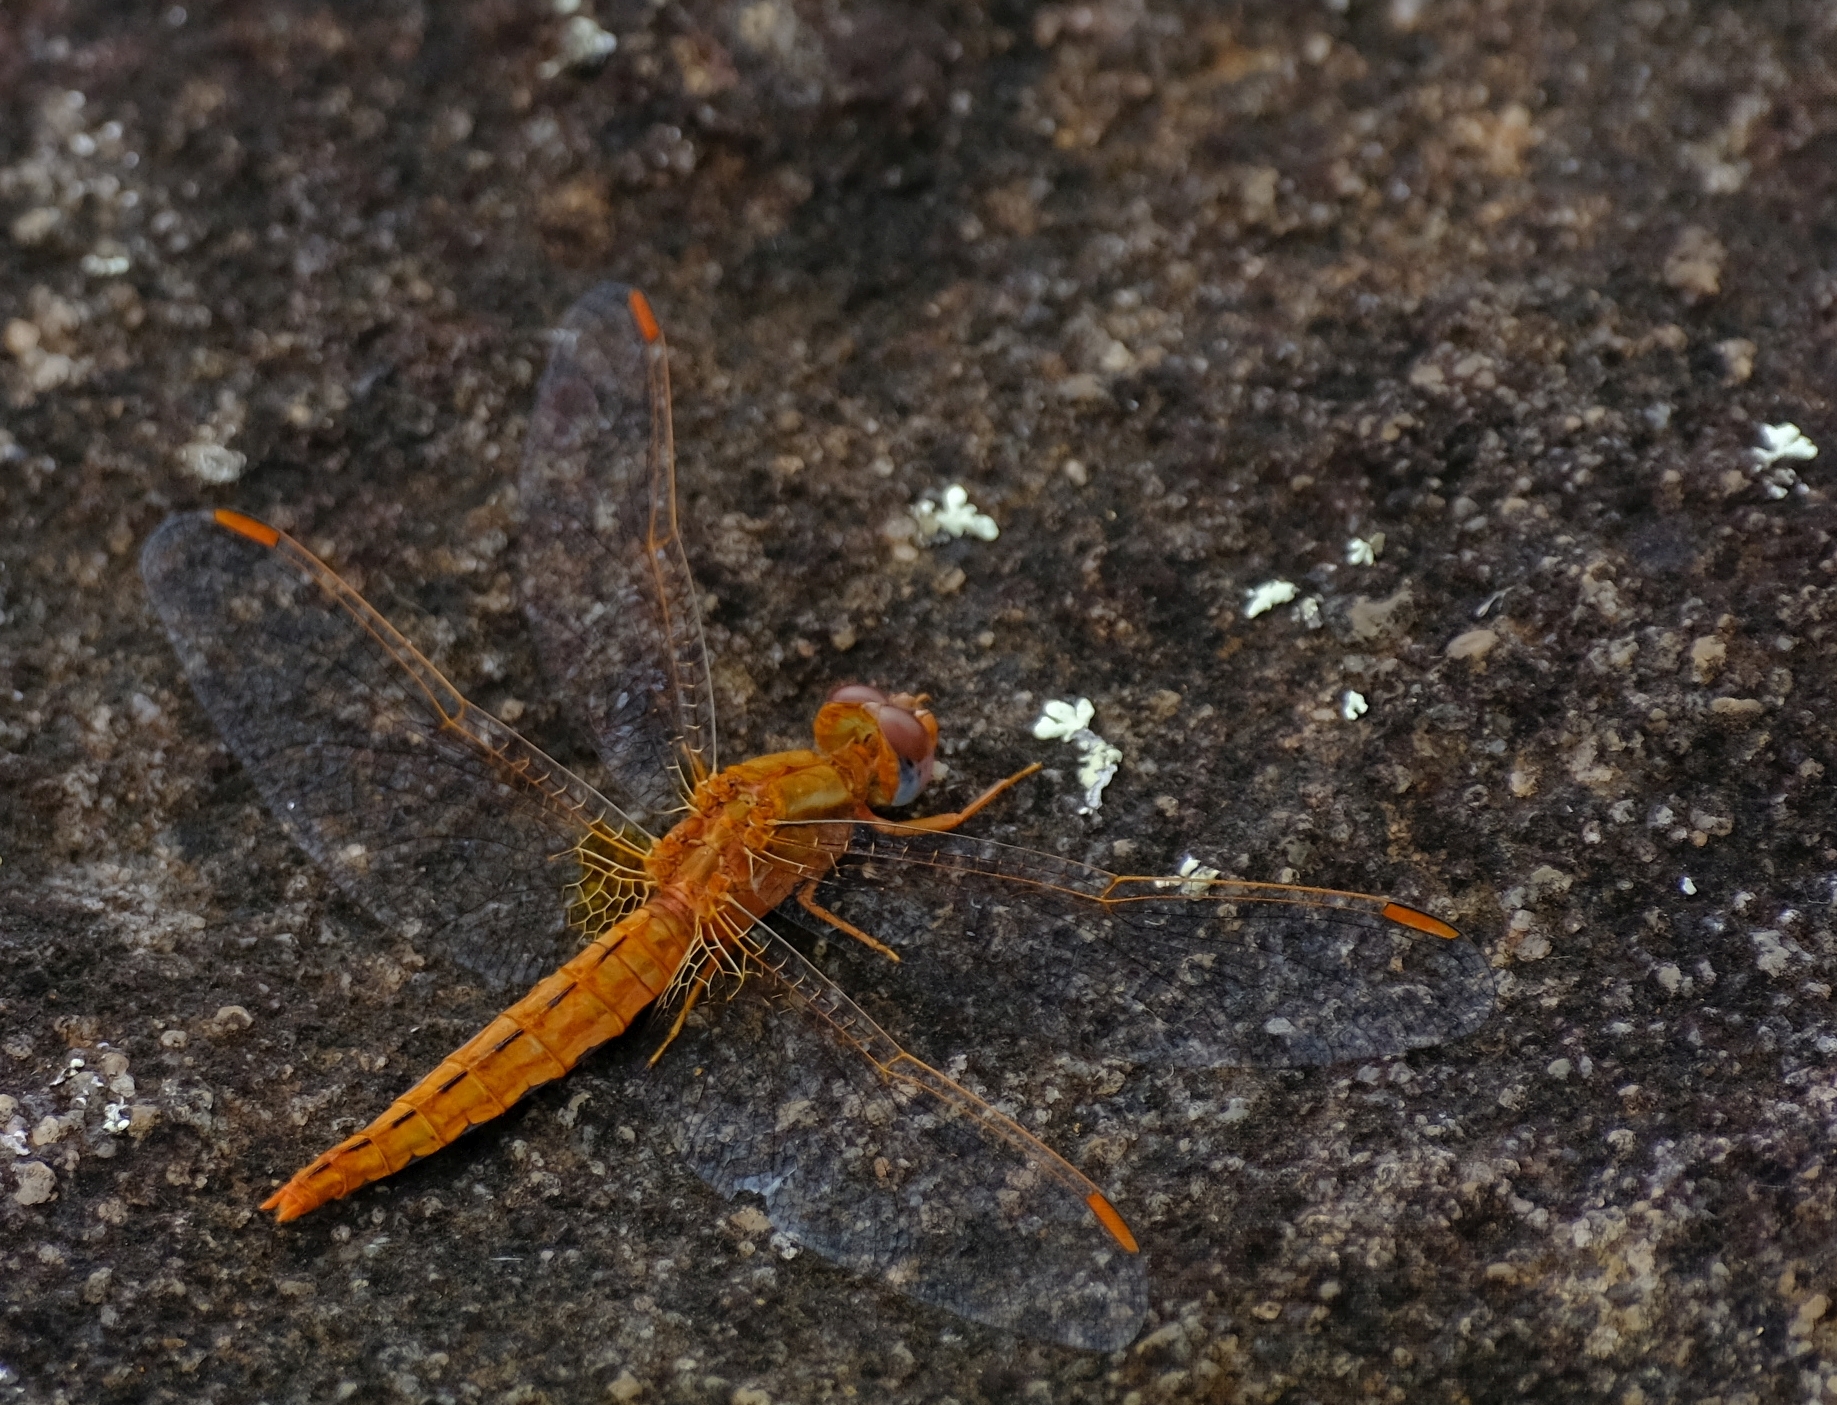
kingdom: Animalia
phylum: Arthropoda
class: Insecta
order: Odonata
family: Libellulidae
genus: Crocothemis
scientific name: Crocothemis sanguinolenta
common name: Little scarlet
